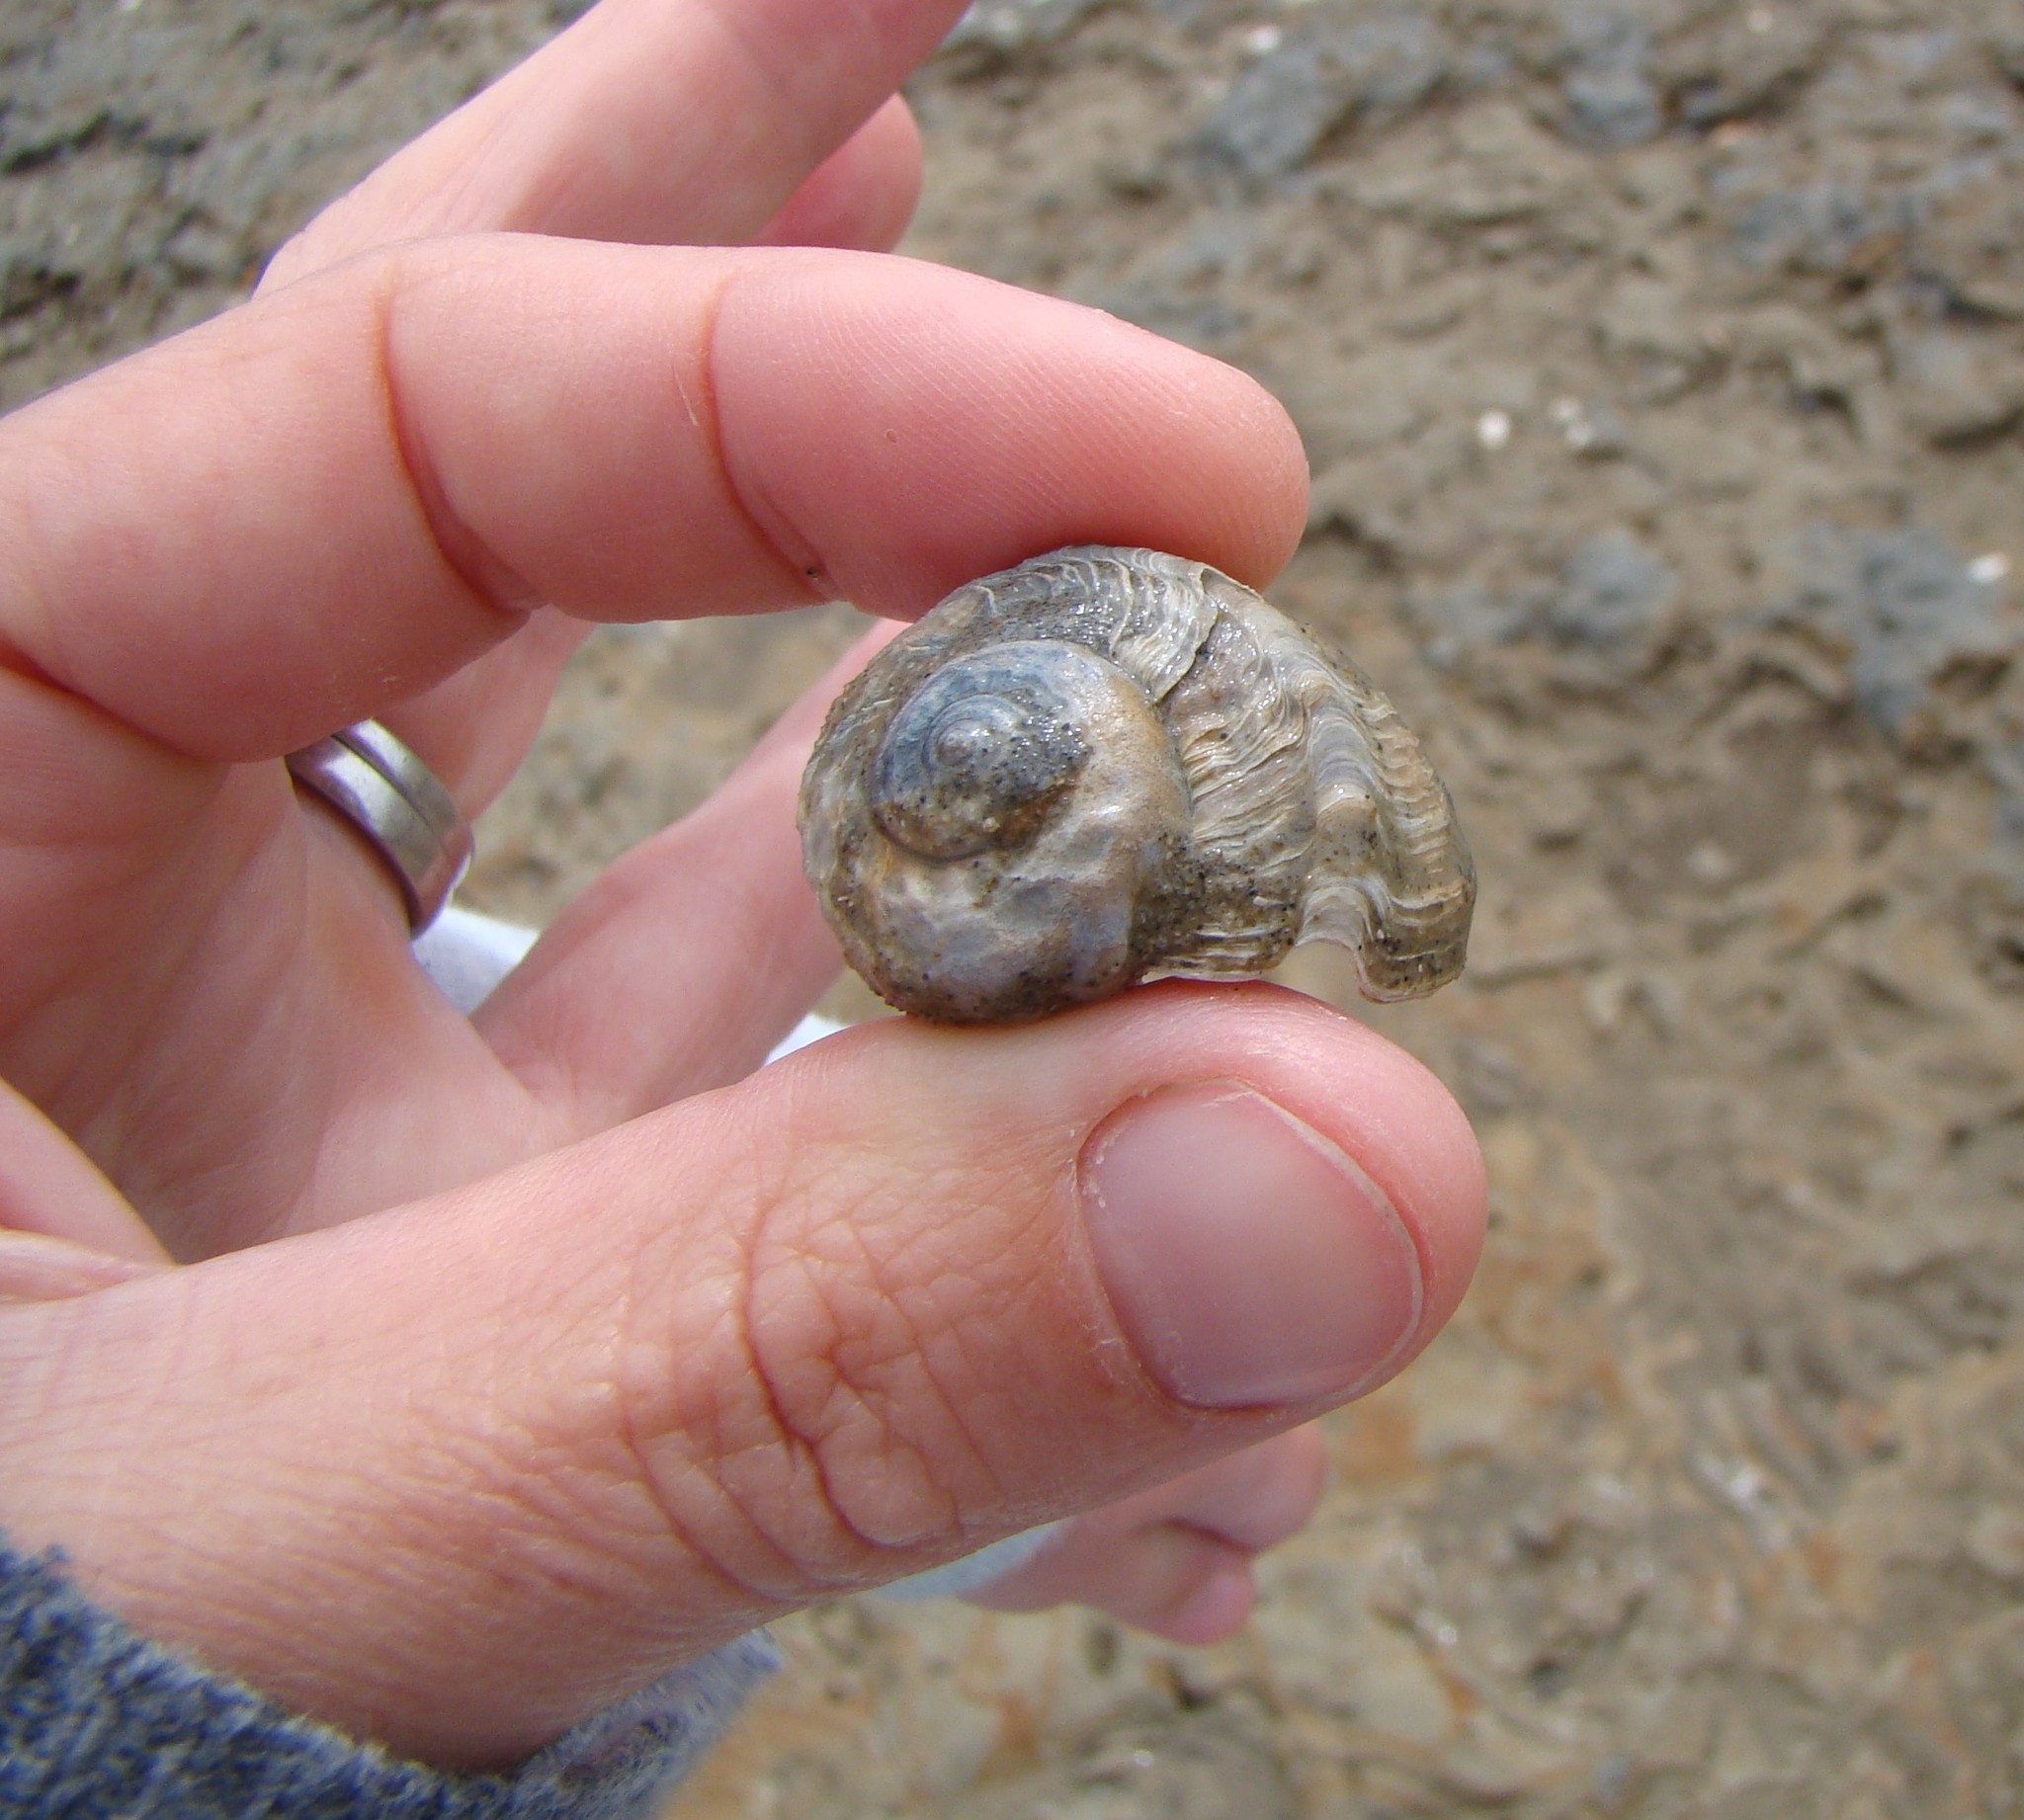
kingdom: Animalia
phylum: Mollusca
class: Gastropoda
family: Amphibolidae
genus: Amphibola
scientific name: Amphibola crenata
